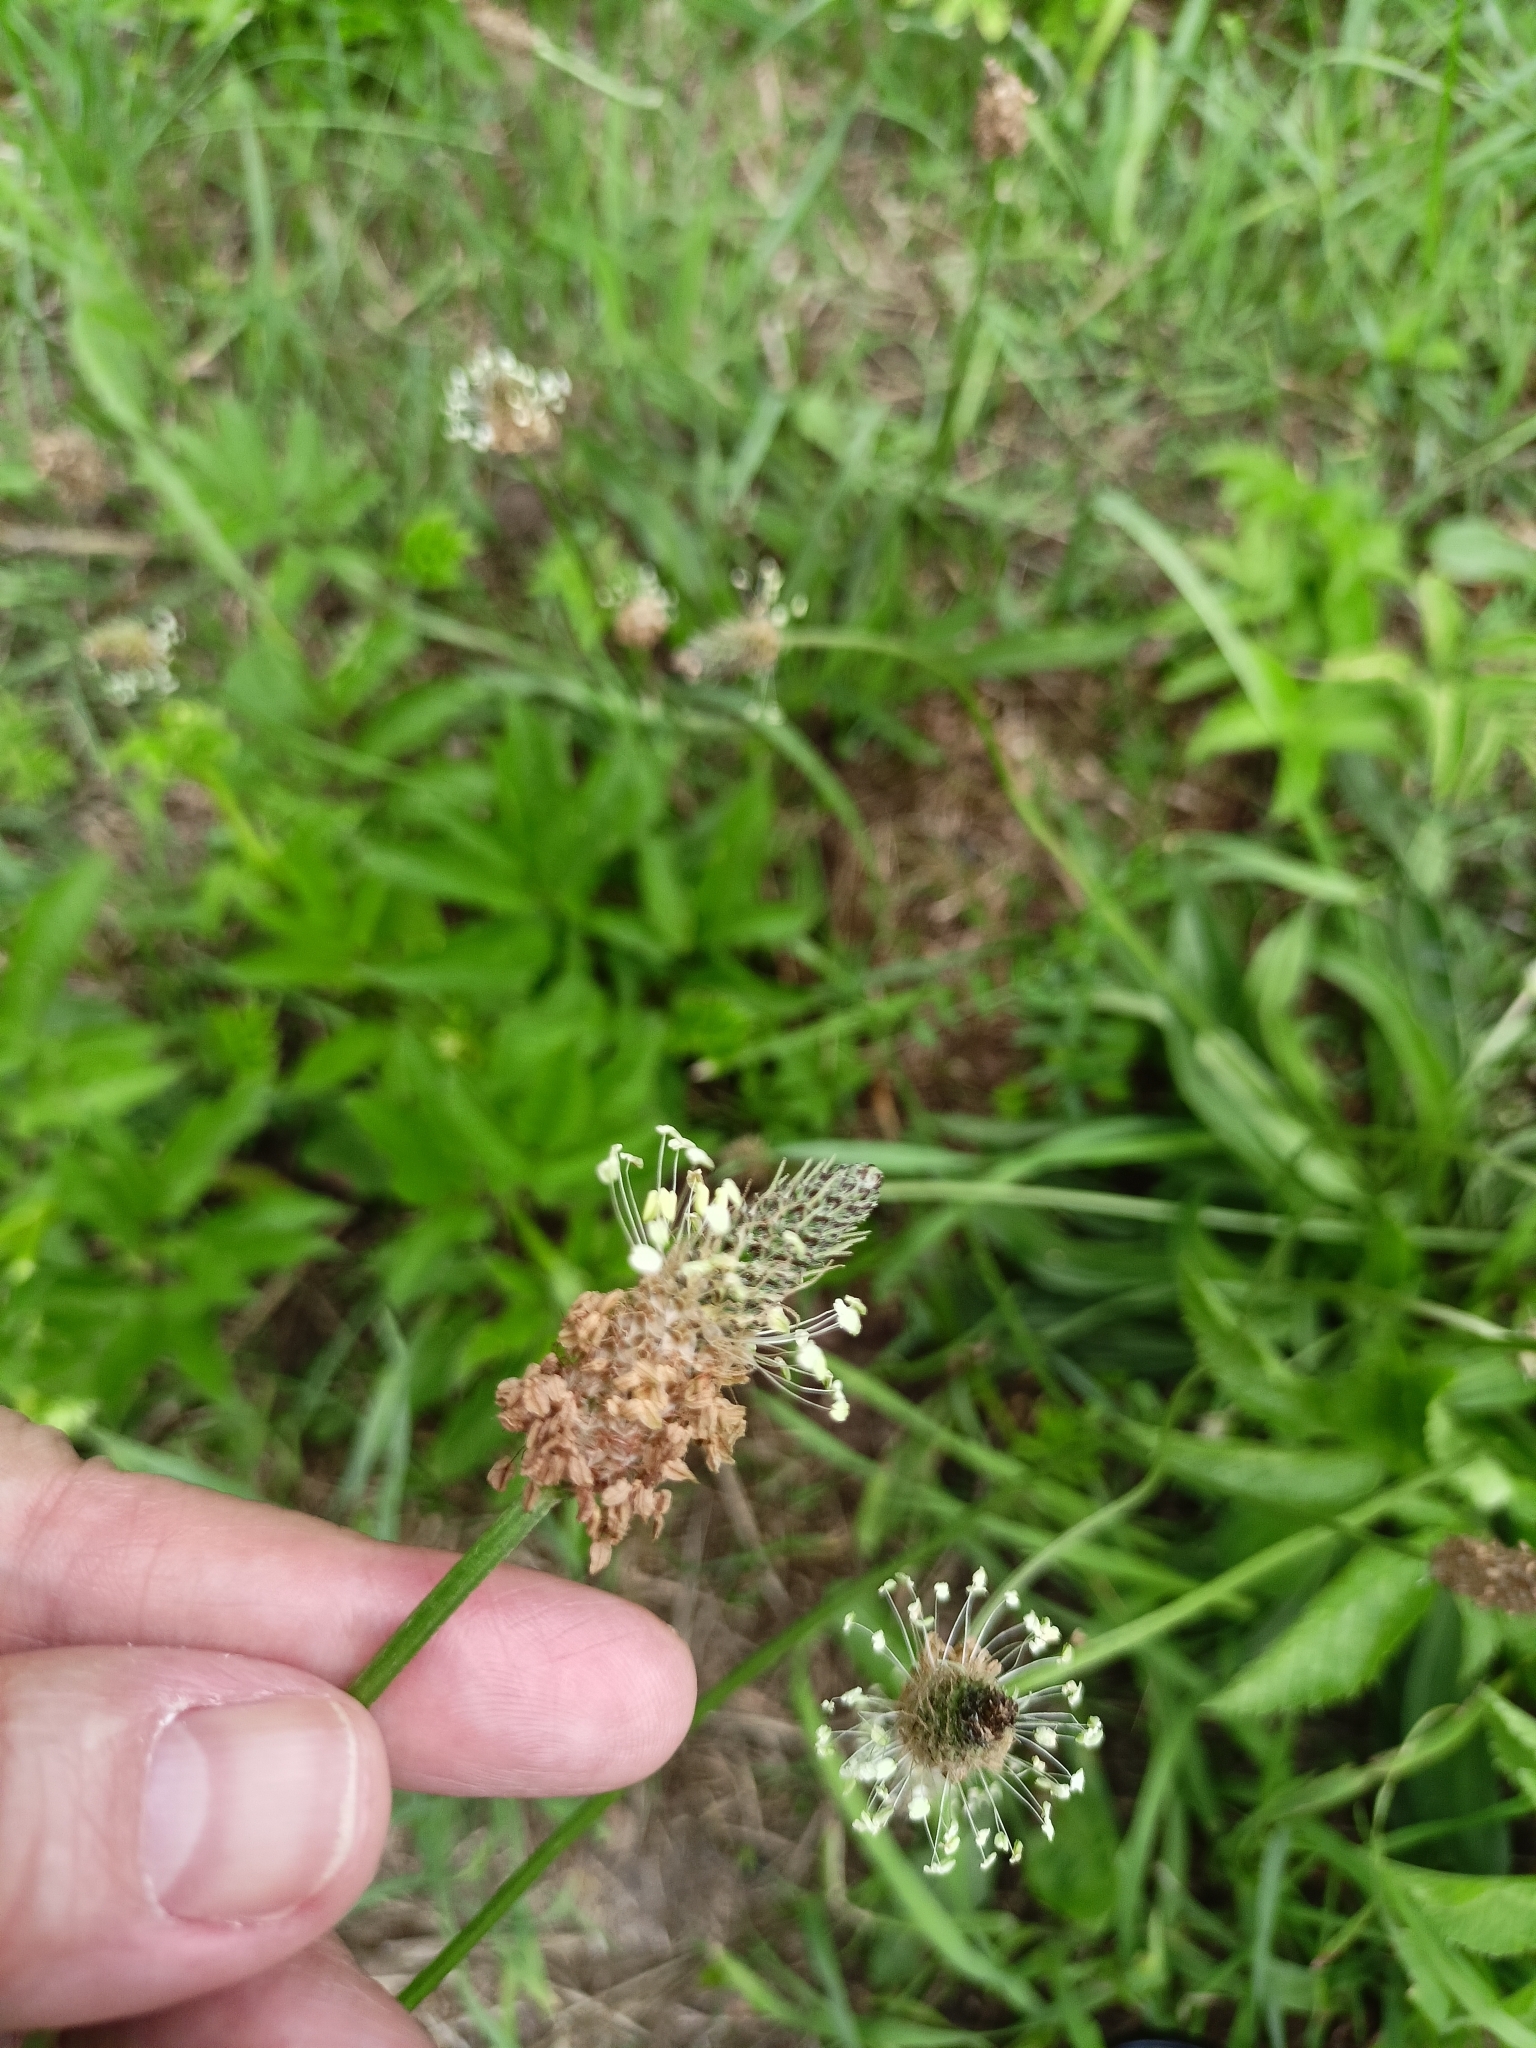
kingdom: Plantae
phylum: Tracheophyta
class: Magnoliopsida
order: Lamiales
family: Plantaginaceae
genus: Plantago
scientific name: Plantago lanceolata
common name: Ribwort plantain
